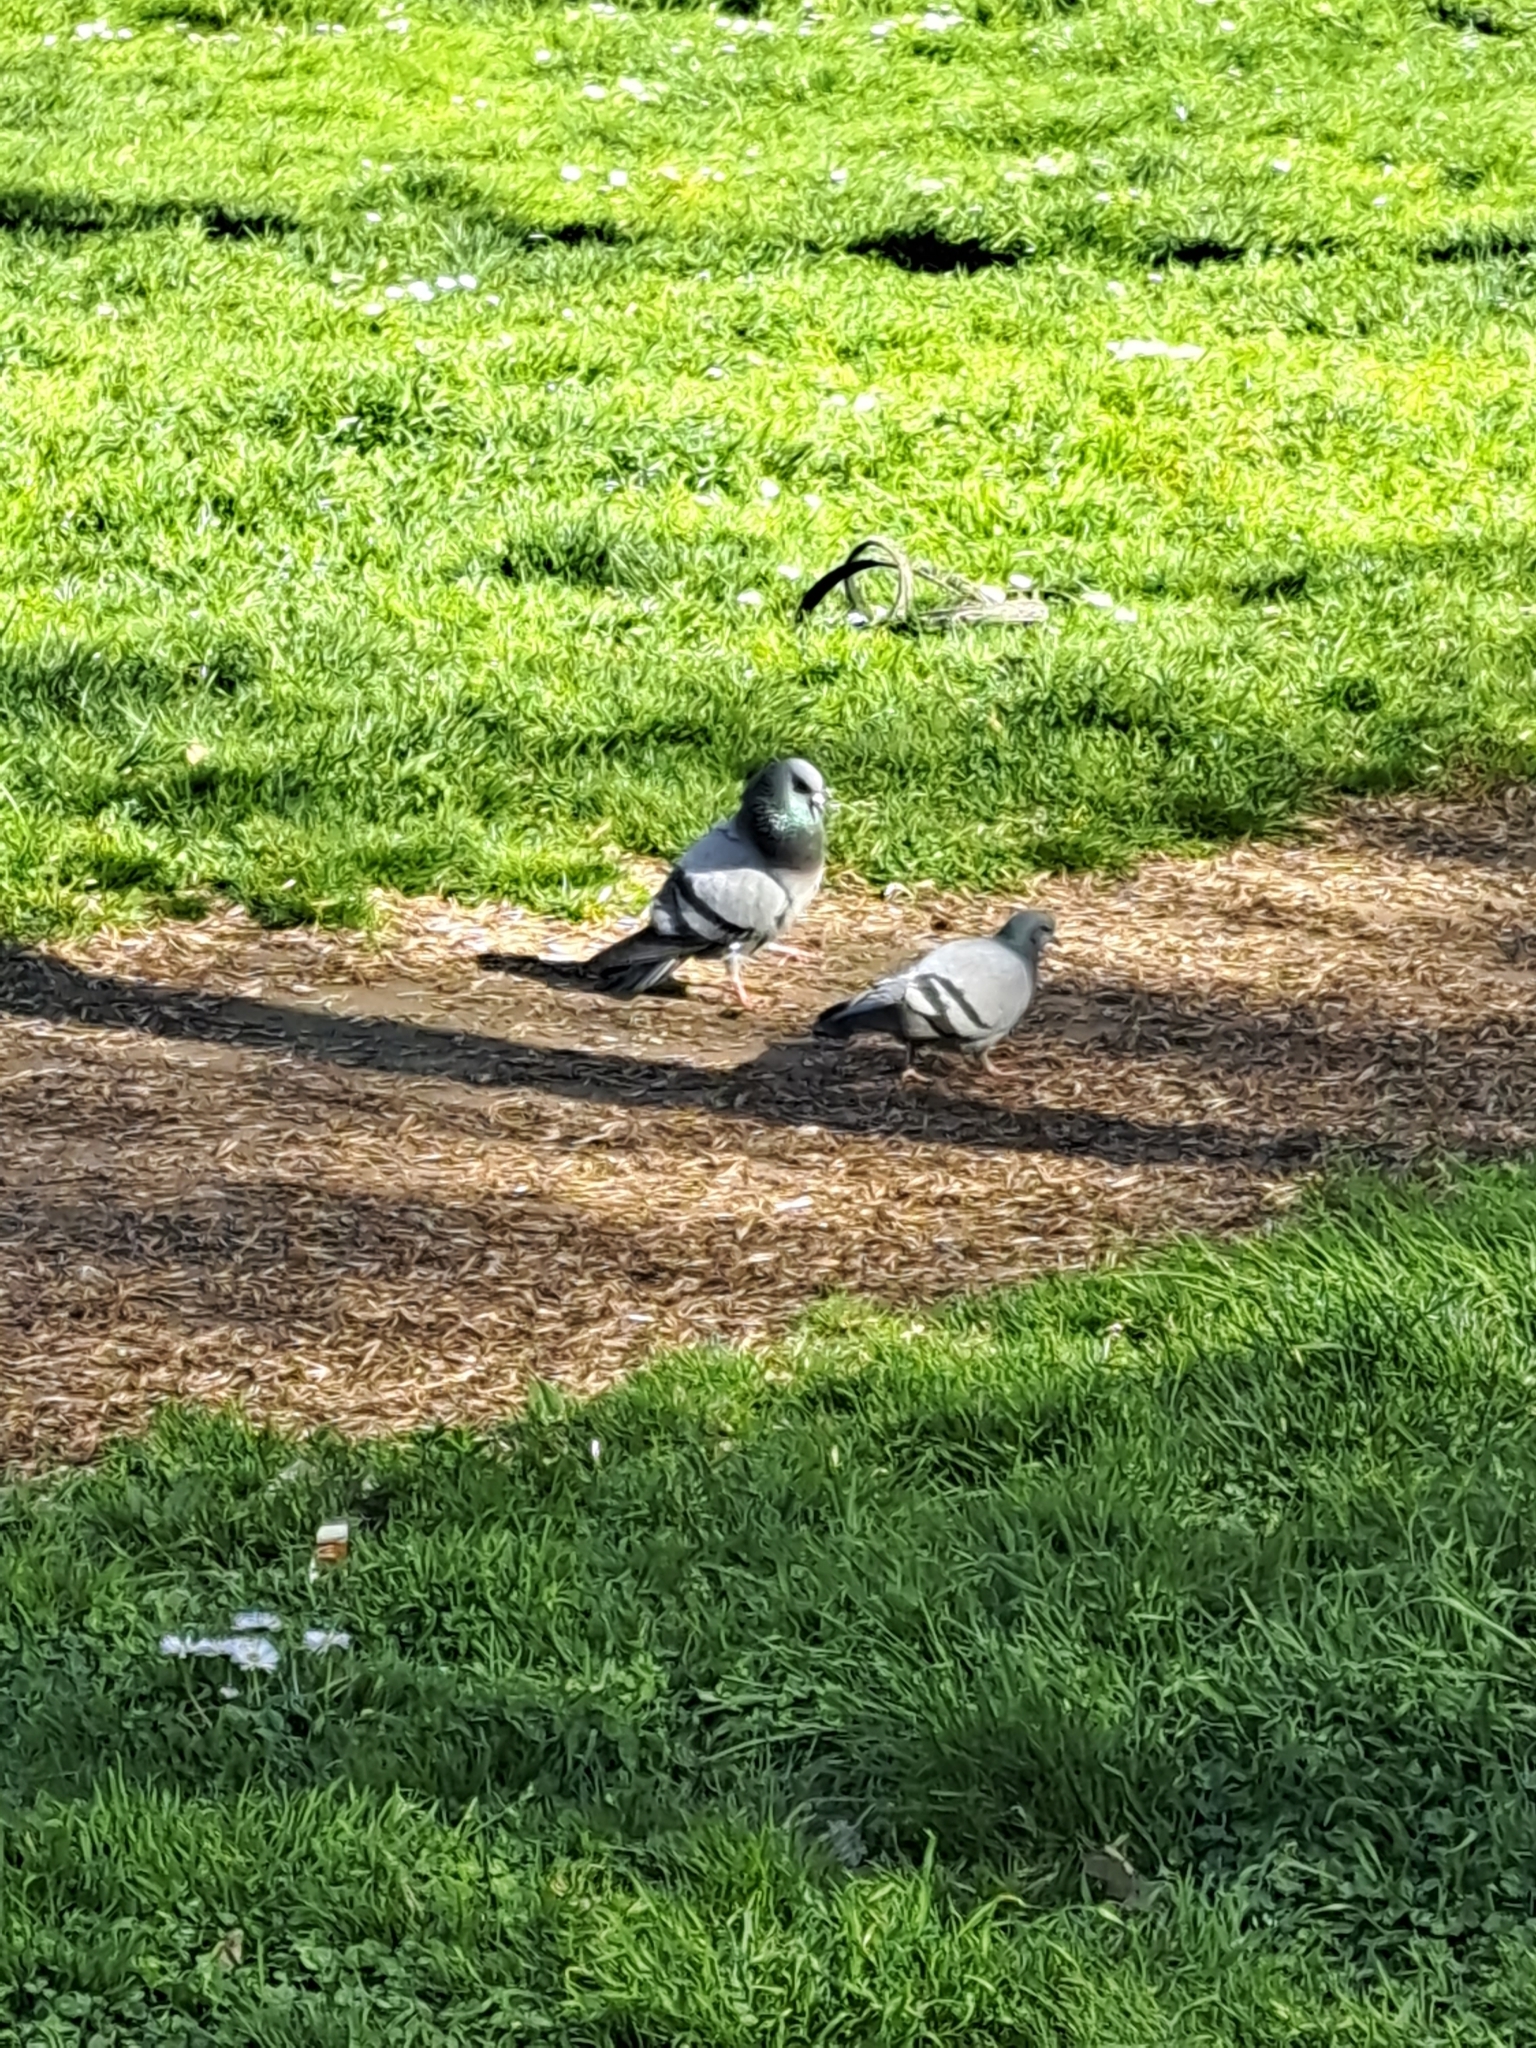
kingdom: Animalia
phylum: Chordata
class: Aves
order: Columbiformes
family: Columbidae
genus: Columba
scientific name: Columba livia
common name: Rock pigeon
